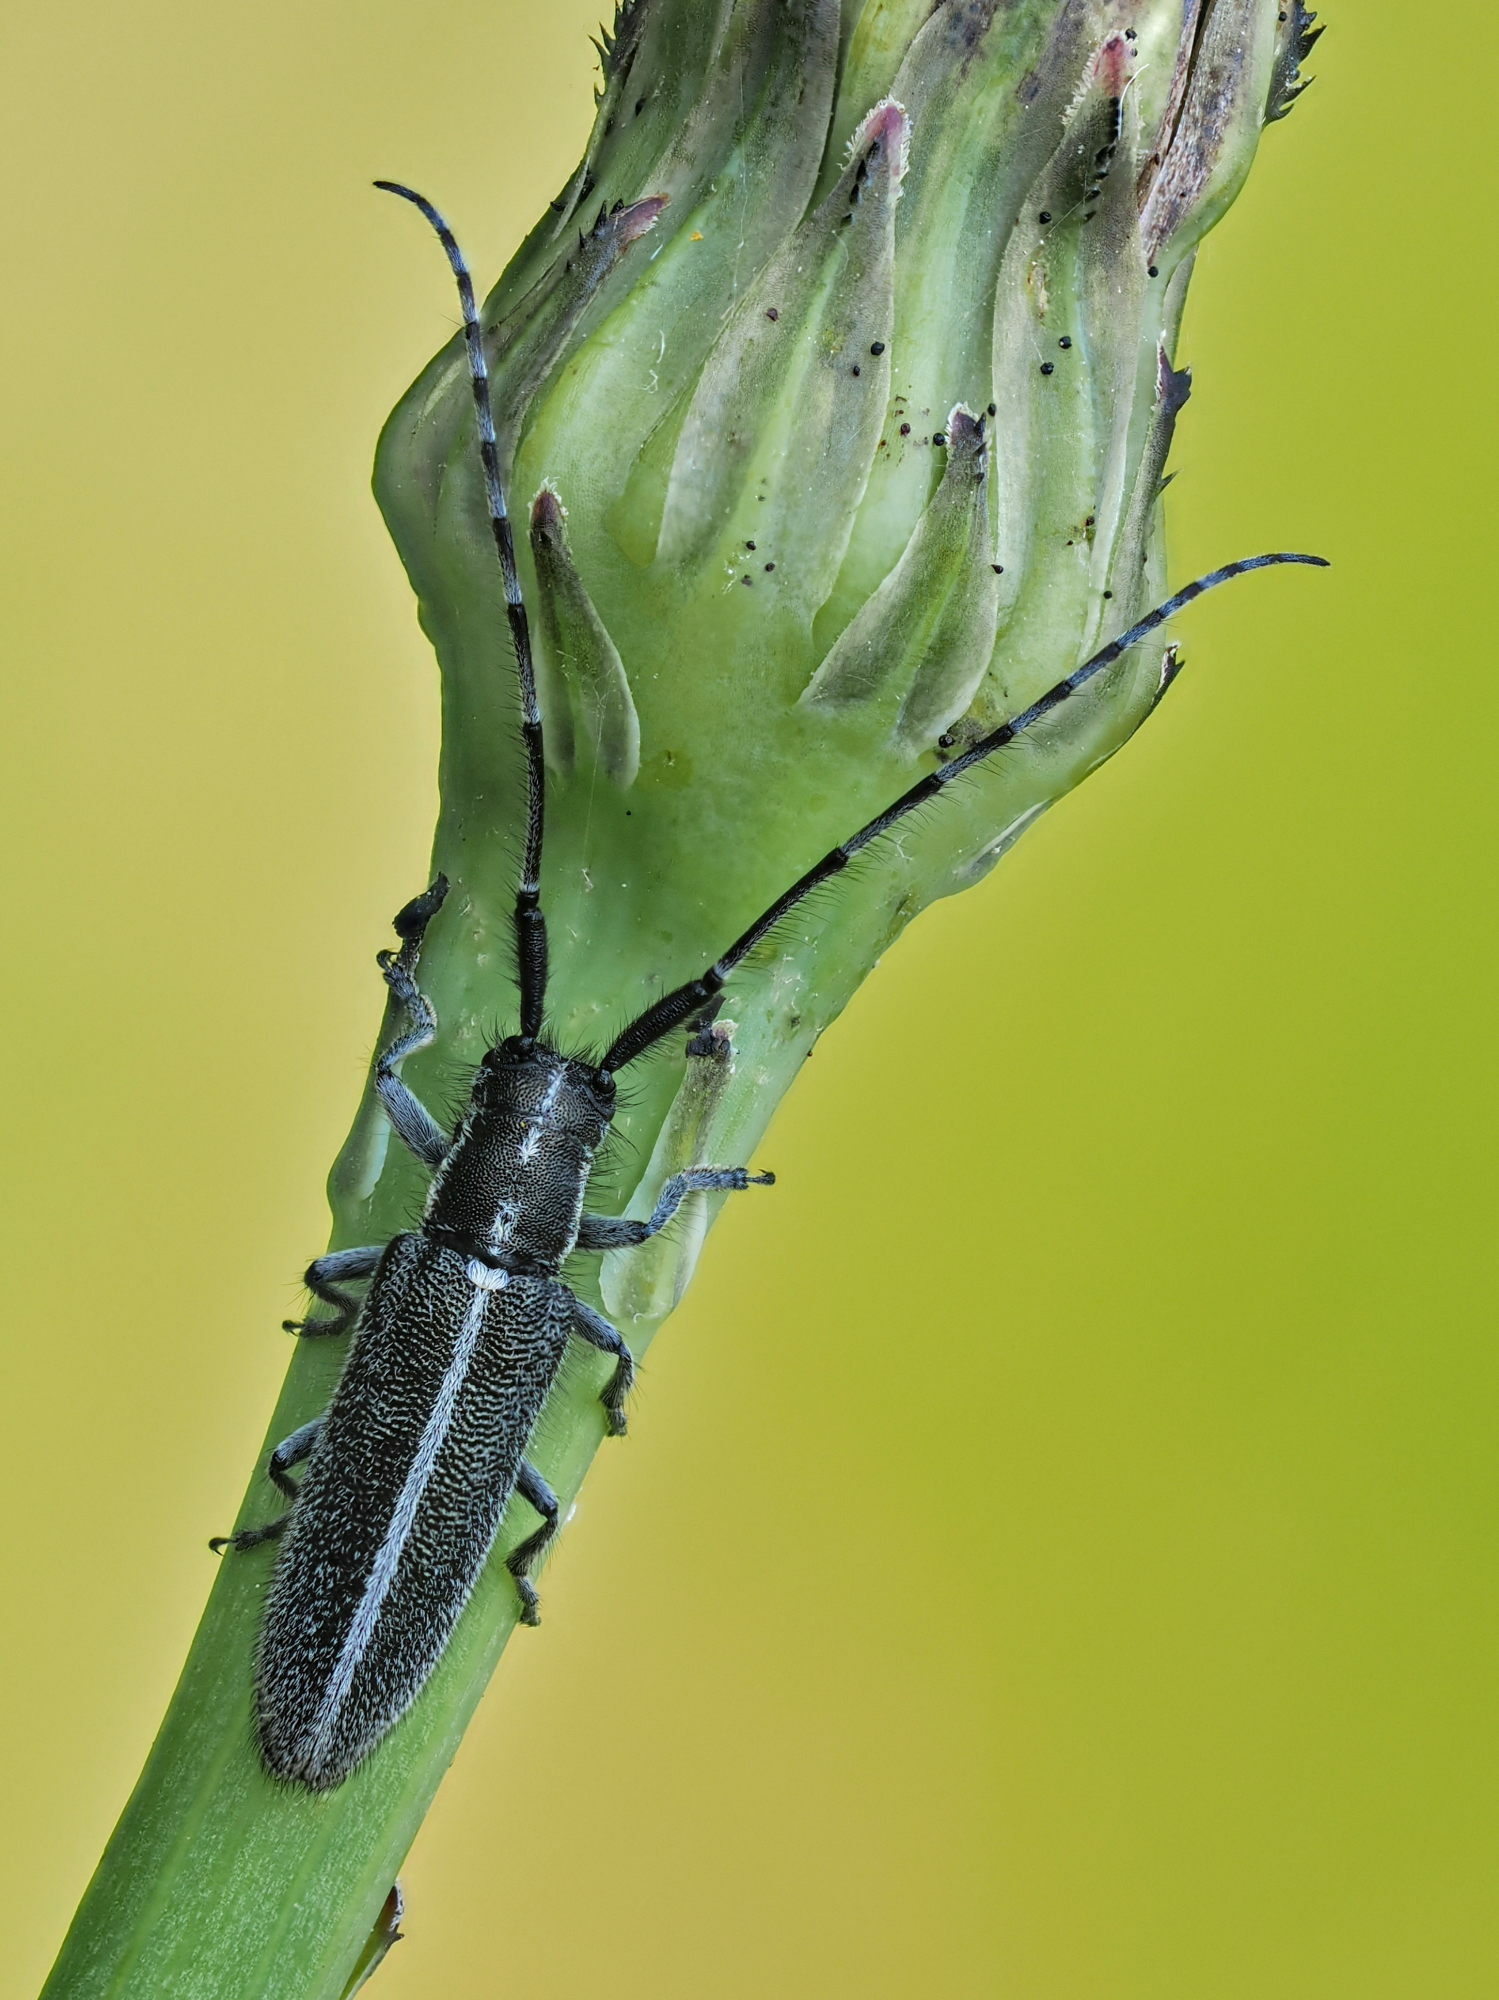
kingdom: Animalia
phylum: Arthropoda
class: Insecta
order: Coleoptera
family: Cerambycidae
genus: Agapanthia
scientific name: Agapanthia cardui
